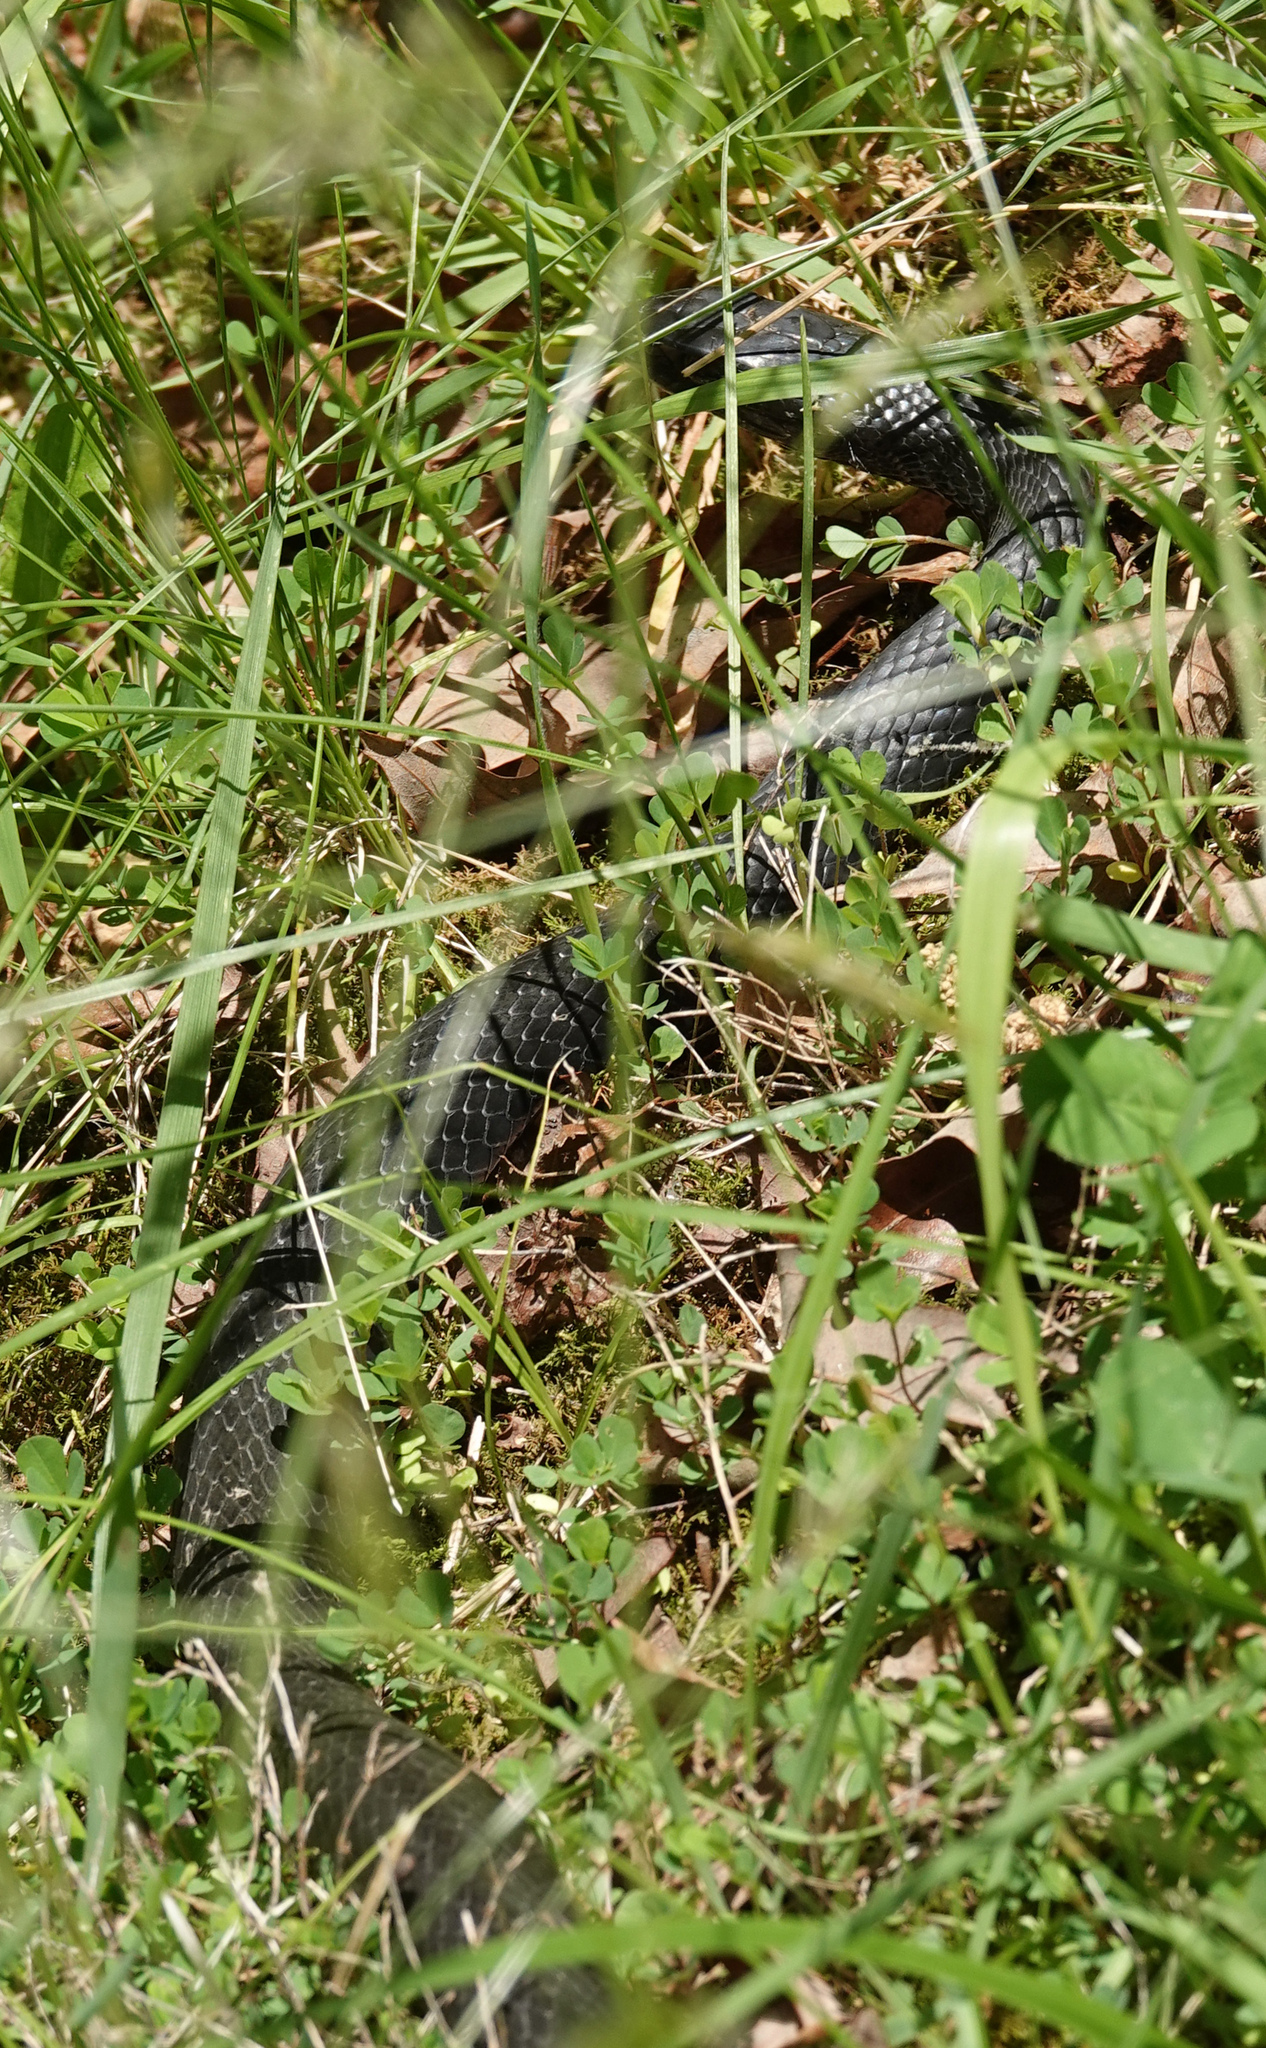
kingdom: Animalia
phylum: Chordata
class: Squamata
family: Colubridae
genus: Coluber
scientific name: Coluber constrictor
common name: Eastern racer
